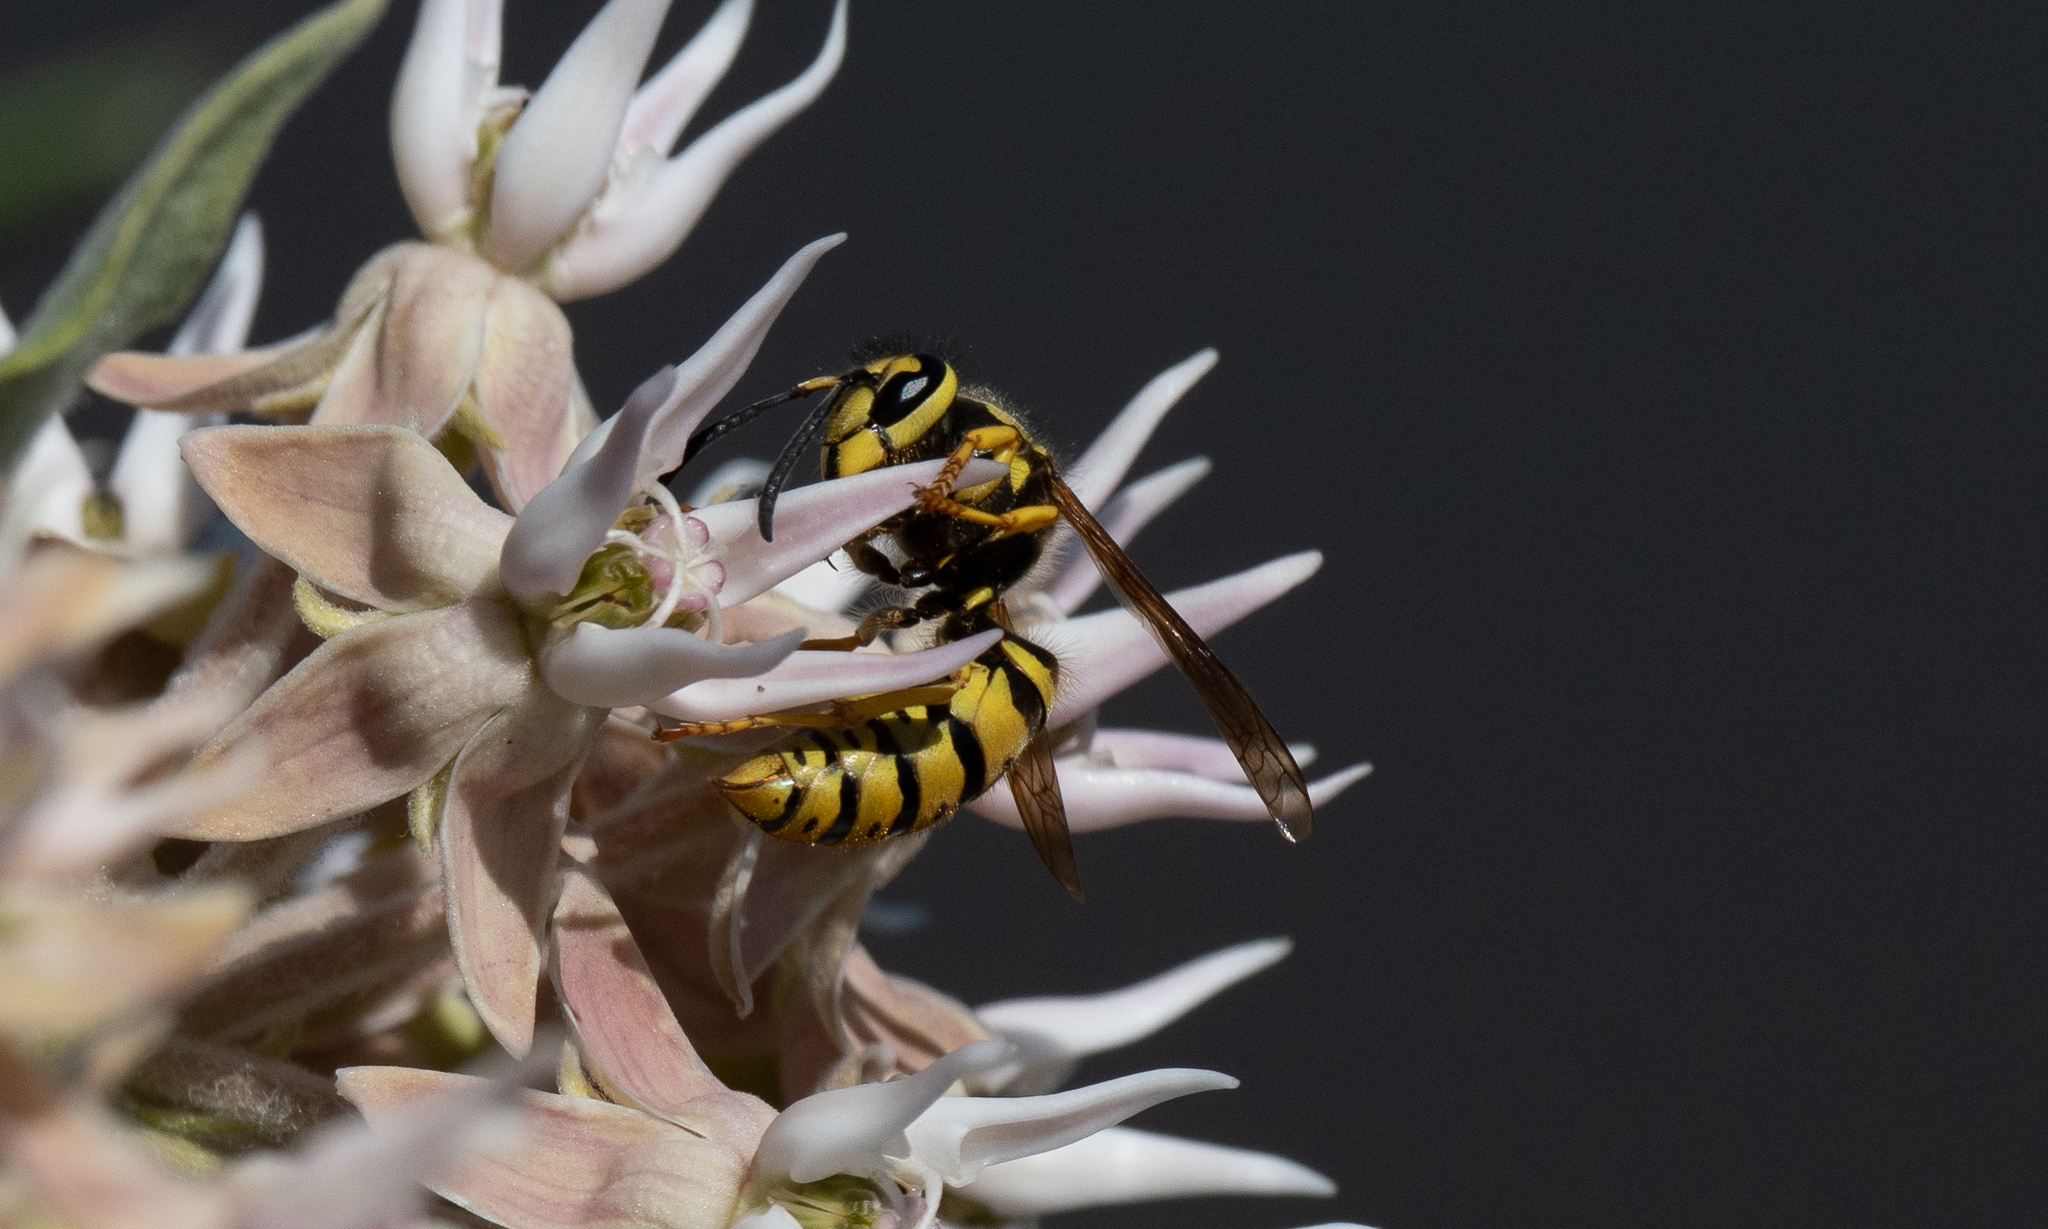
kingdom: Animalia
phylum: Arthropoda
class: Insecta
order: Hymenoptera
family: Vespidae
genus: Vespula
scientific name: Vespula pensylvanica
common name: Western yellowjacket
